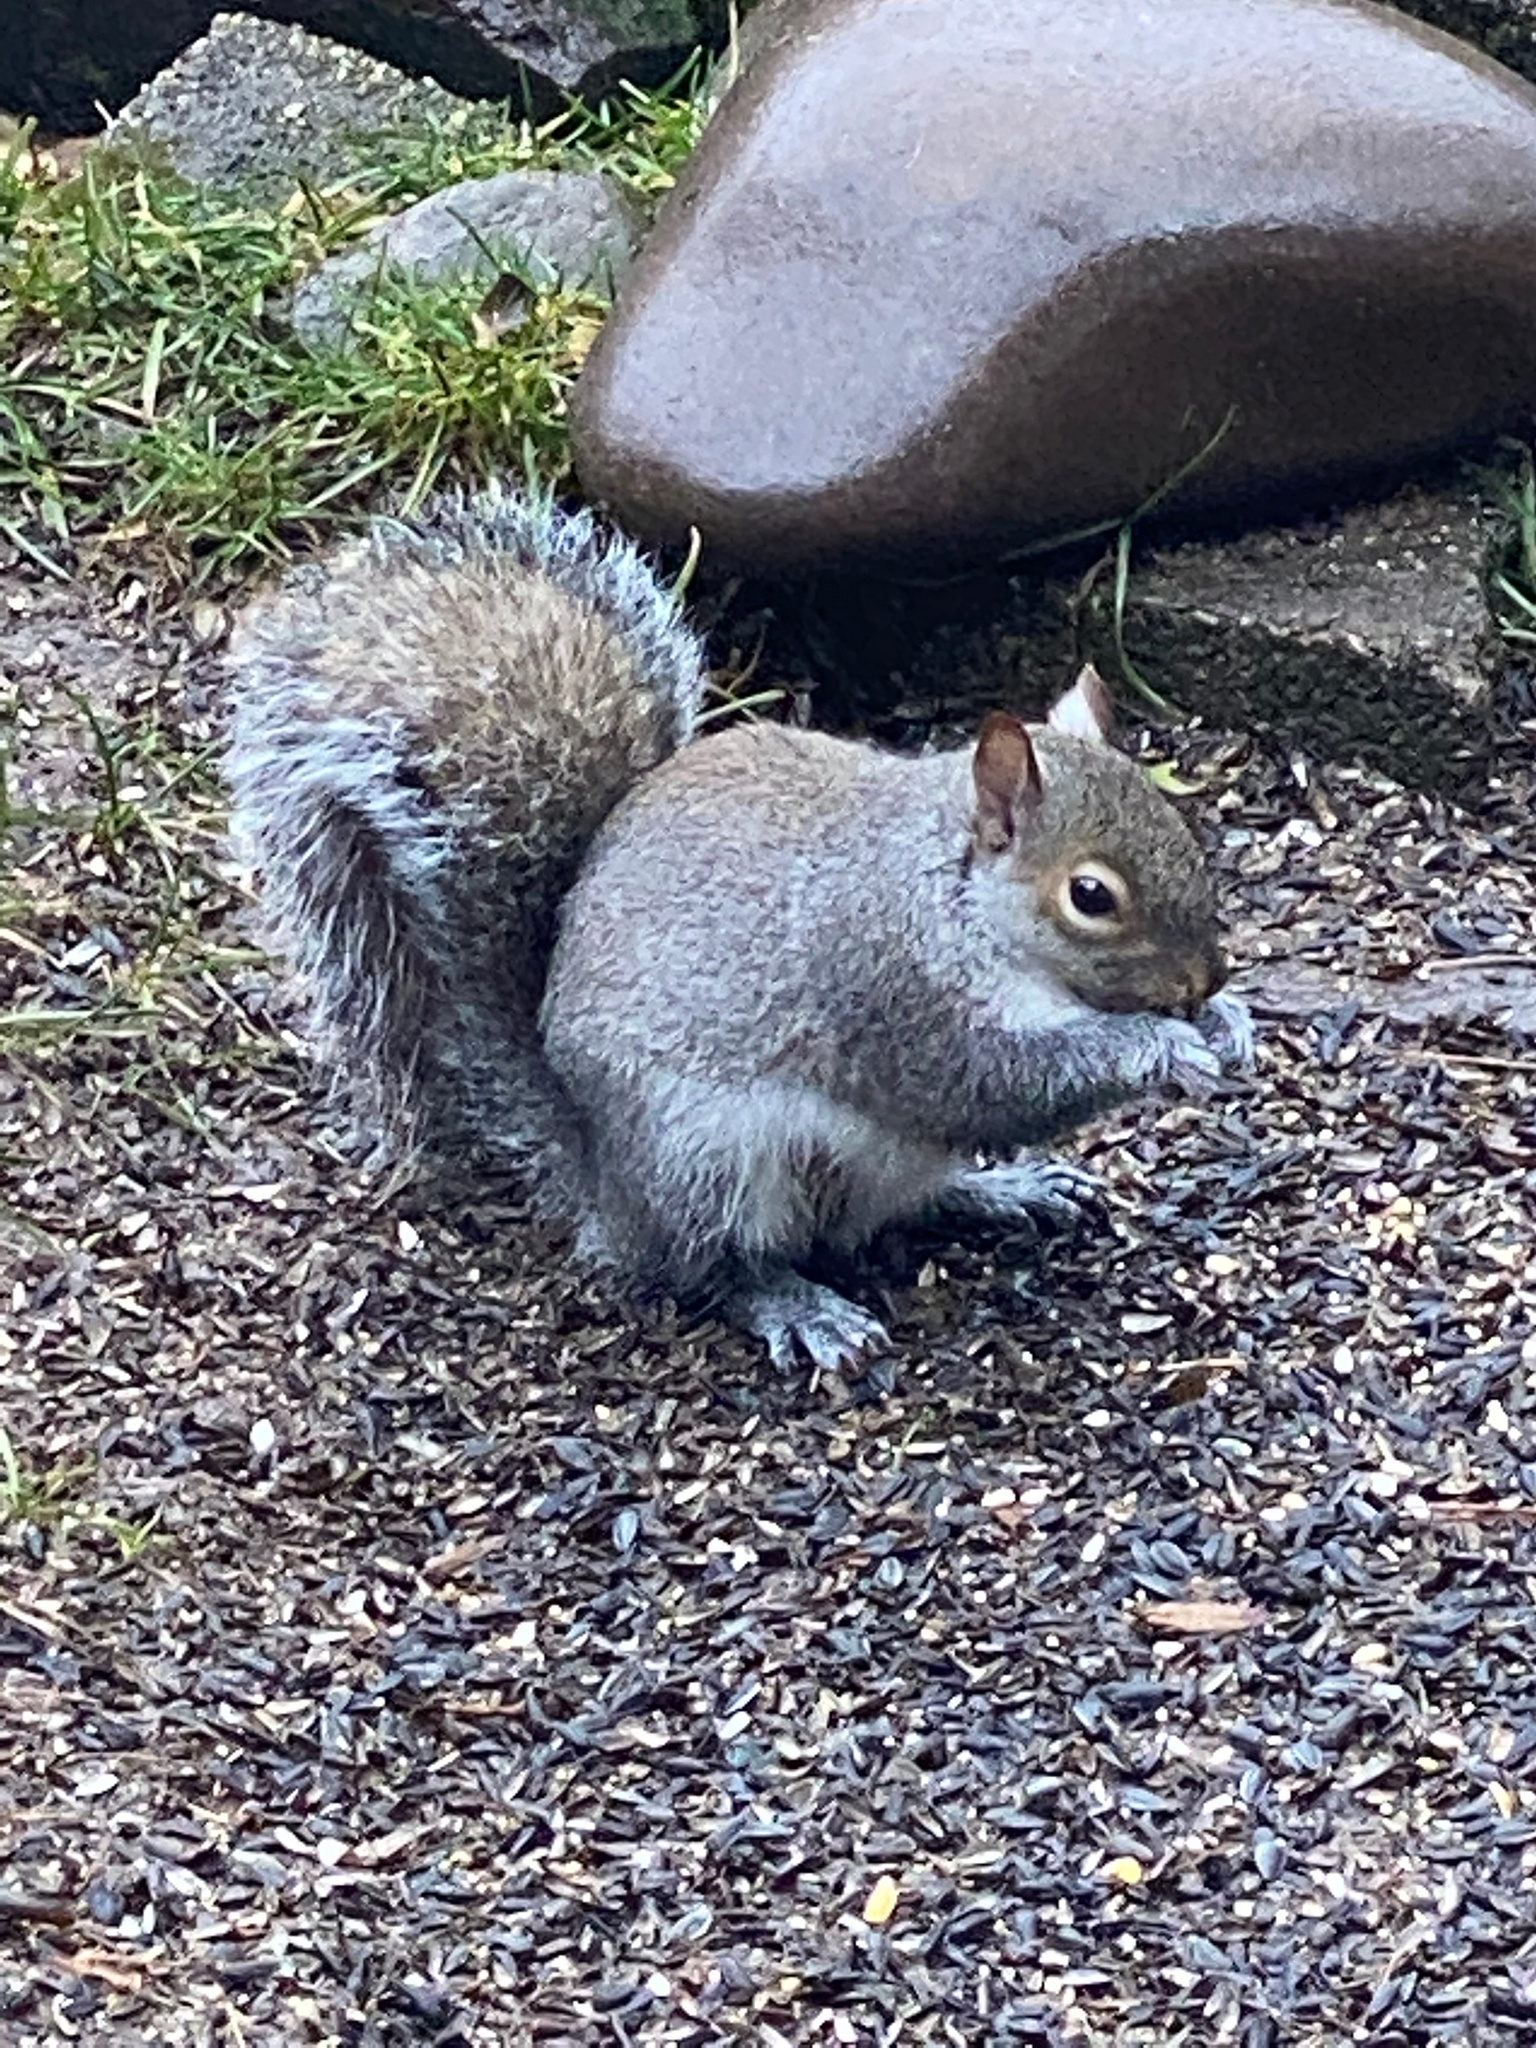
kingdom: Animalia
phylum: Chordata
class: Mammalia
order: Rodentia
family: Sciuridae
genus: Sciurus
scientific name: Sciurus carolinensis
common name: Eastern gray squirrel
